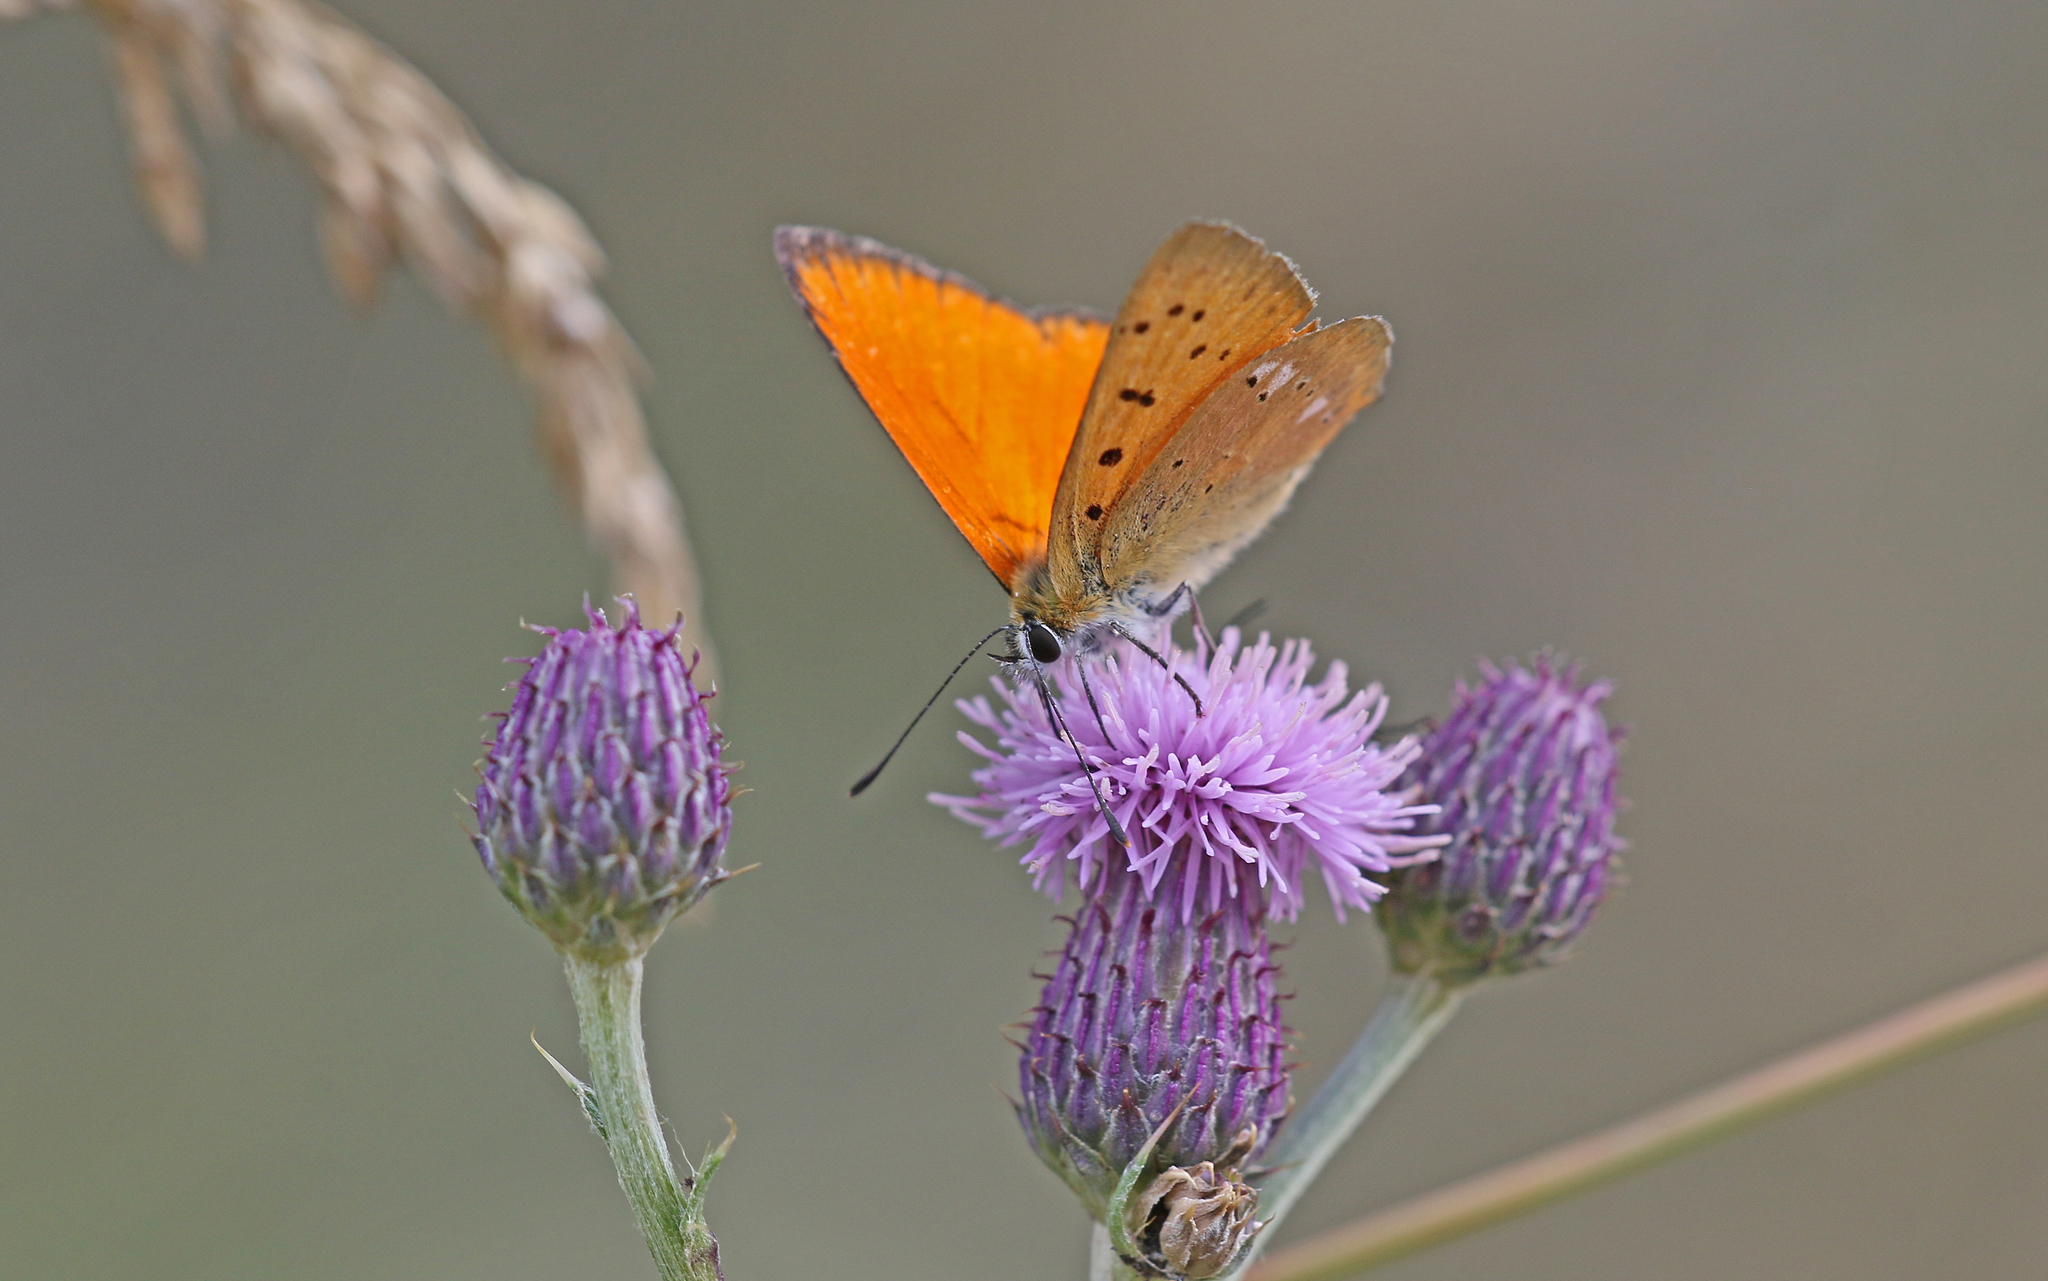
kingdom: Animalia
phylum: Arthropoda
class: Insecta
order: Lepidoptera
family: Lycaenidae
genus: Lycaena
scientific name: Lycaena virgaureae
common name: Scarce copper
